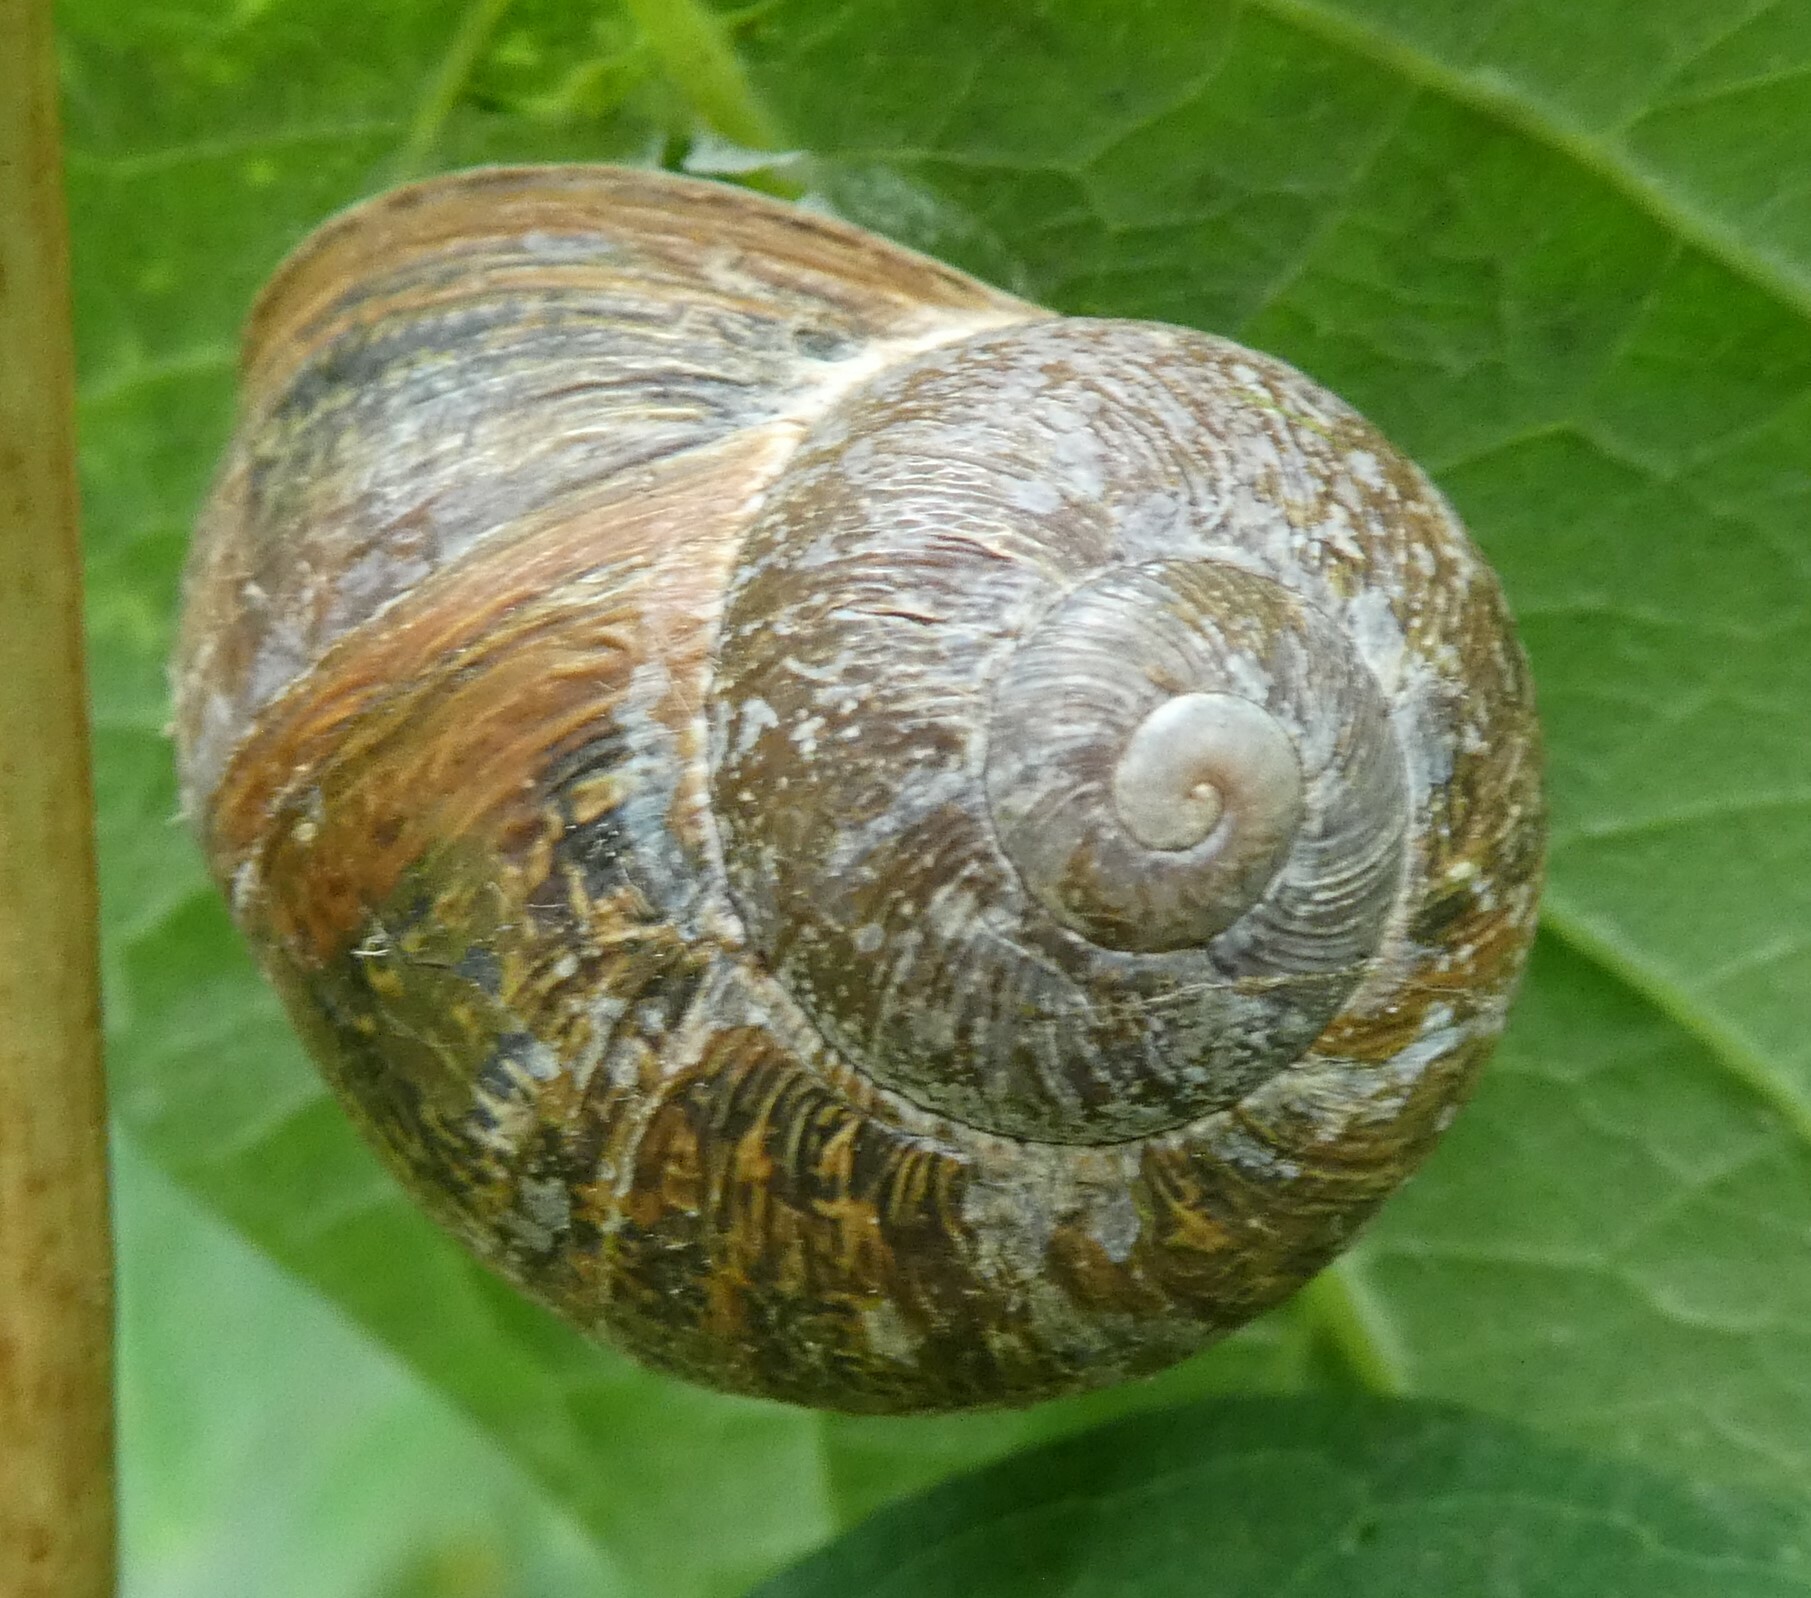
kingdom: Animalia
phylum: Mollusca
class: Gastropoda
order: Stylommatophora
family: Helicidae
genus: Cornu
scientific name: Cornu aspersum
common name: Brown garden snail
